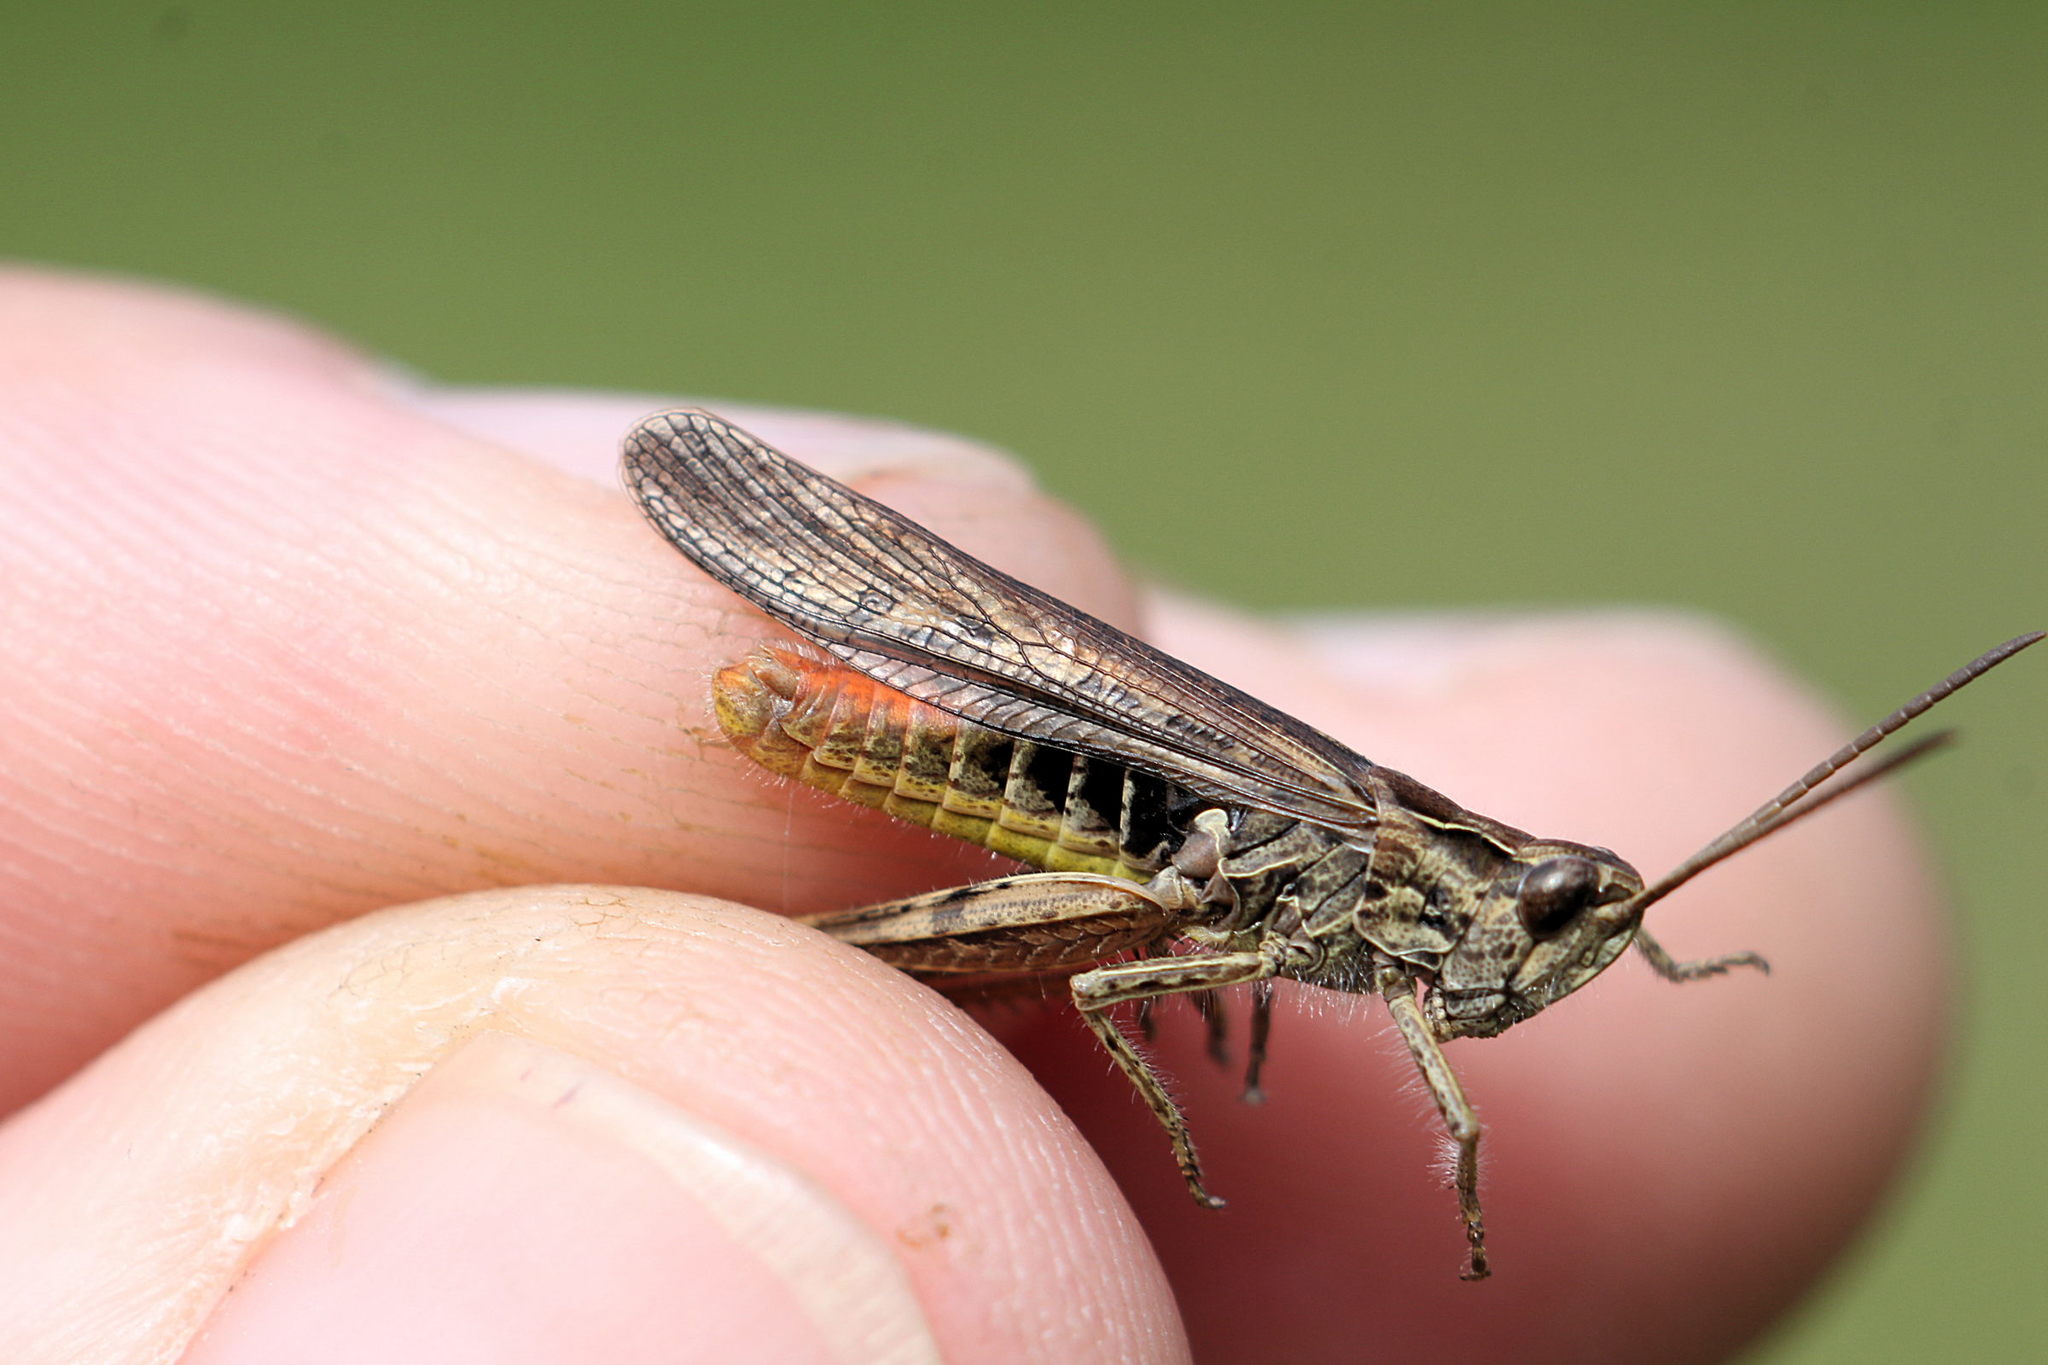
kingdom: Animalia
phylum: Arthropoda
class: Insecta
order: Orthoptera
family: Acrididae
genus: Chorthippus
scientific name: Chorthippus brunneus
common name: Field grasshopper
